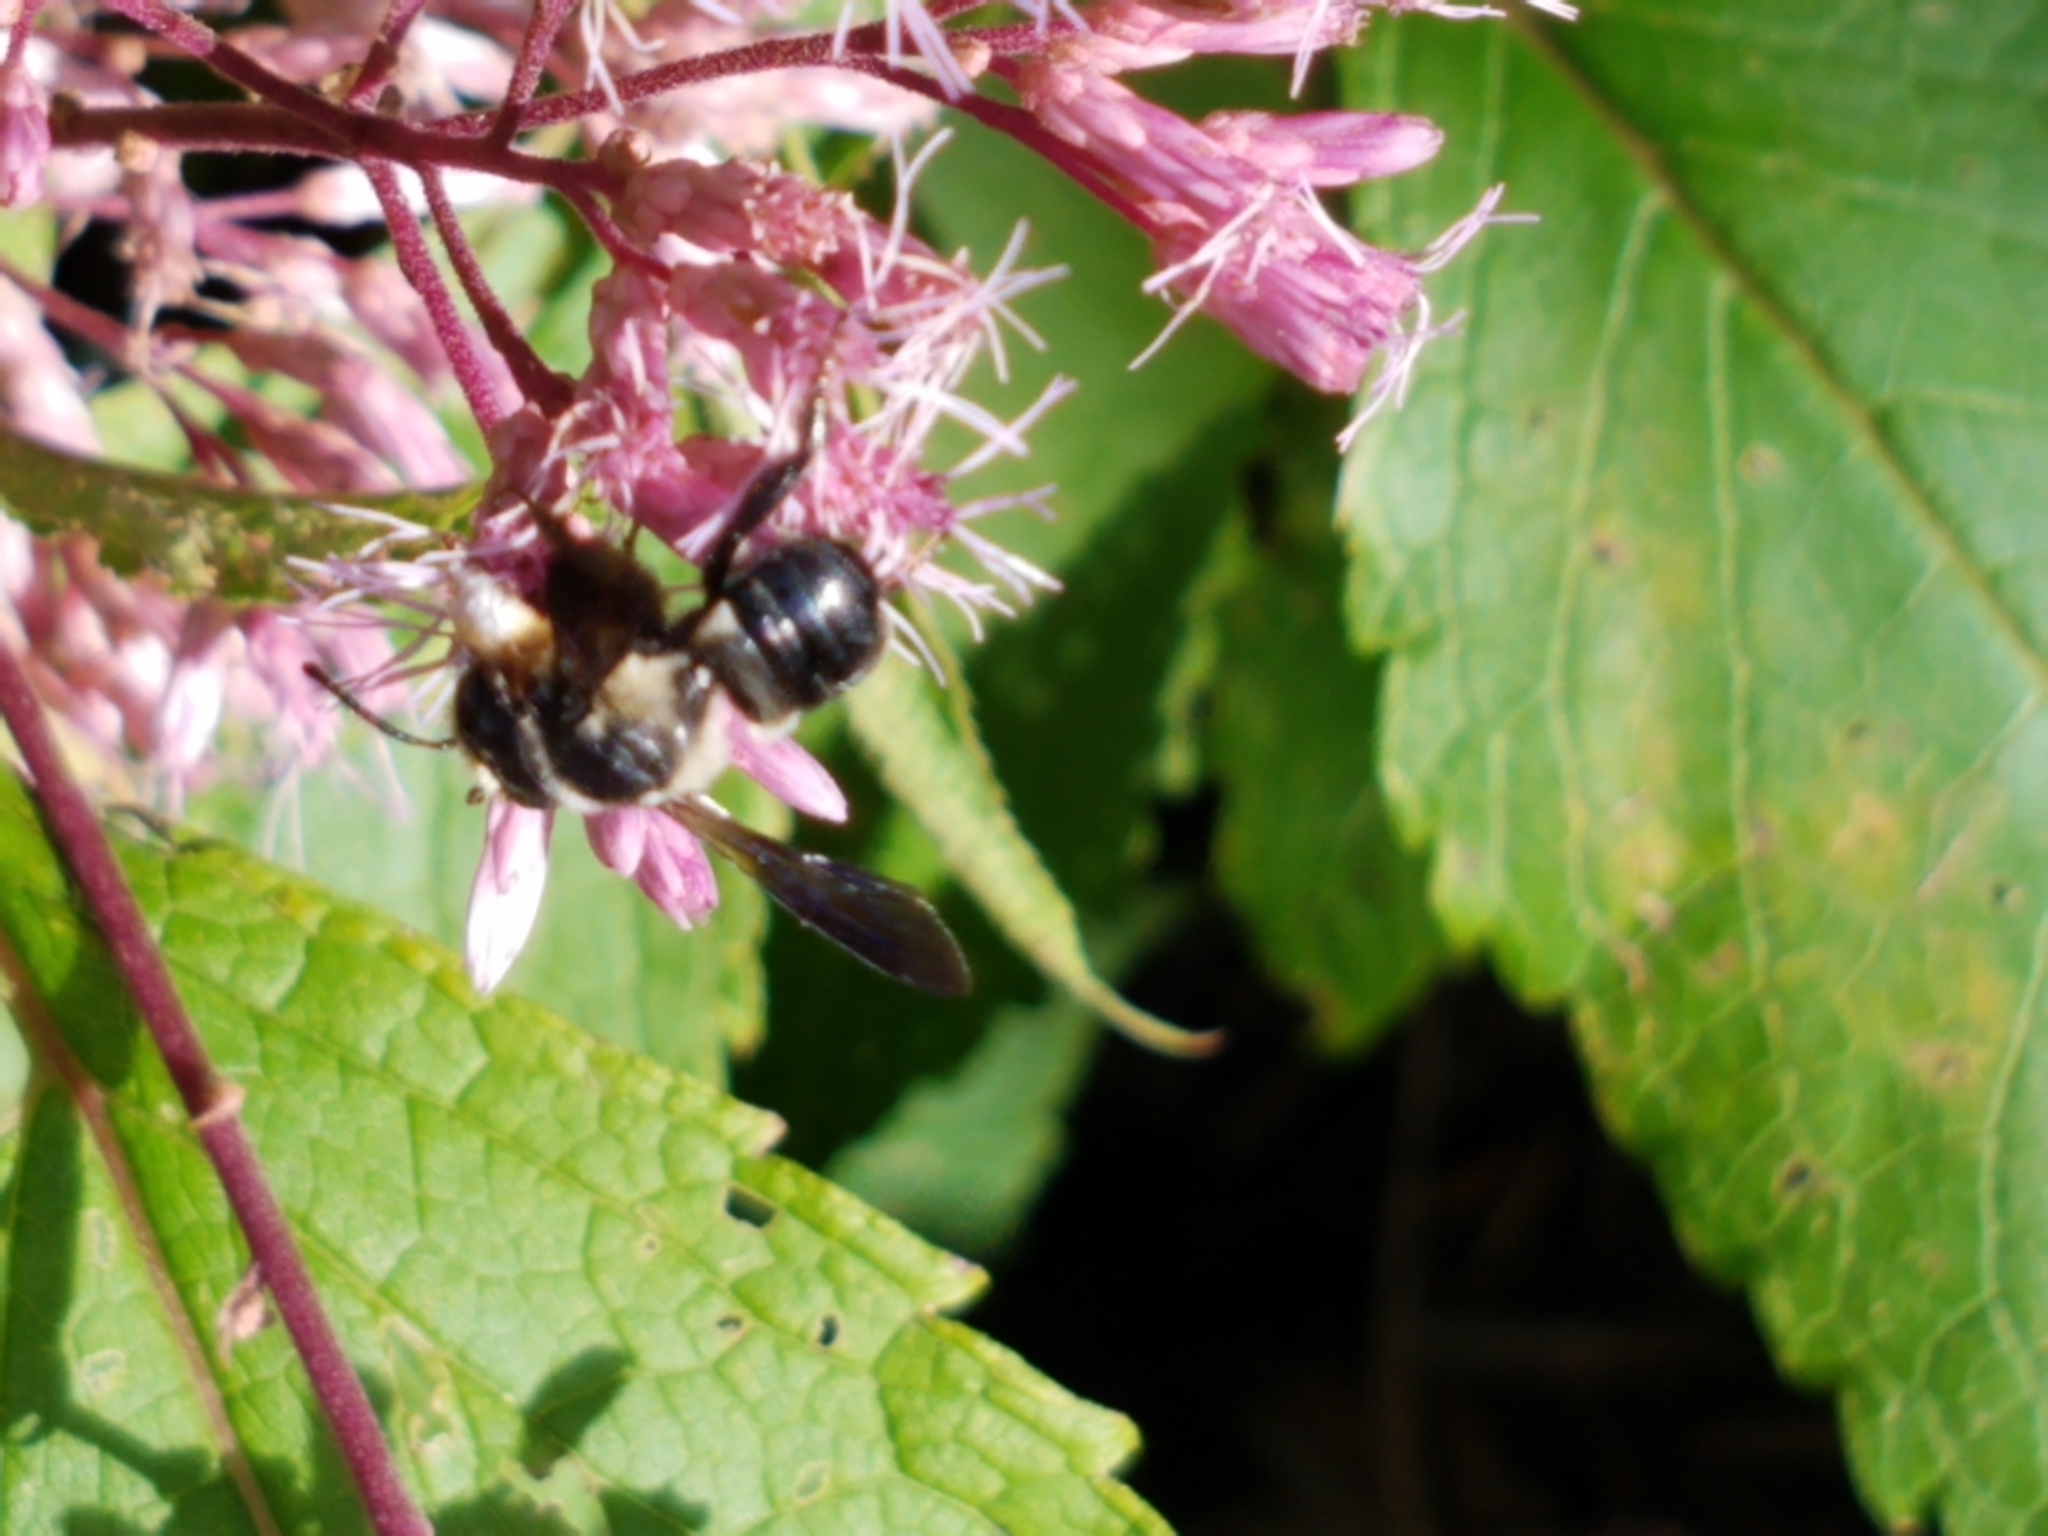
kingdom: Animalia
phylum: Arthropoda
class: Insecta
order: Hymenoptera
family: Megachilidae
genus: Megachile
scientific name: Megachile xylocopoides
